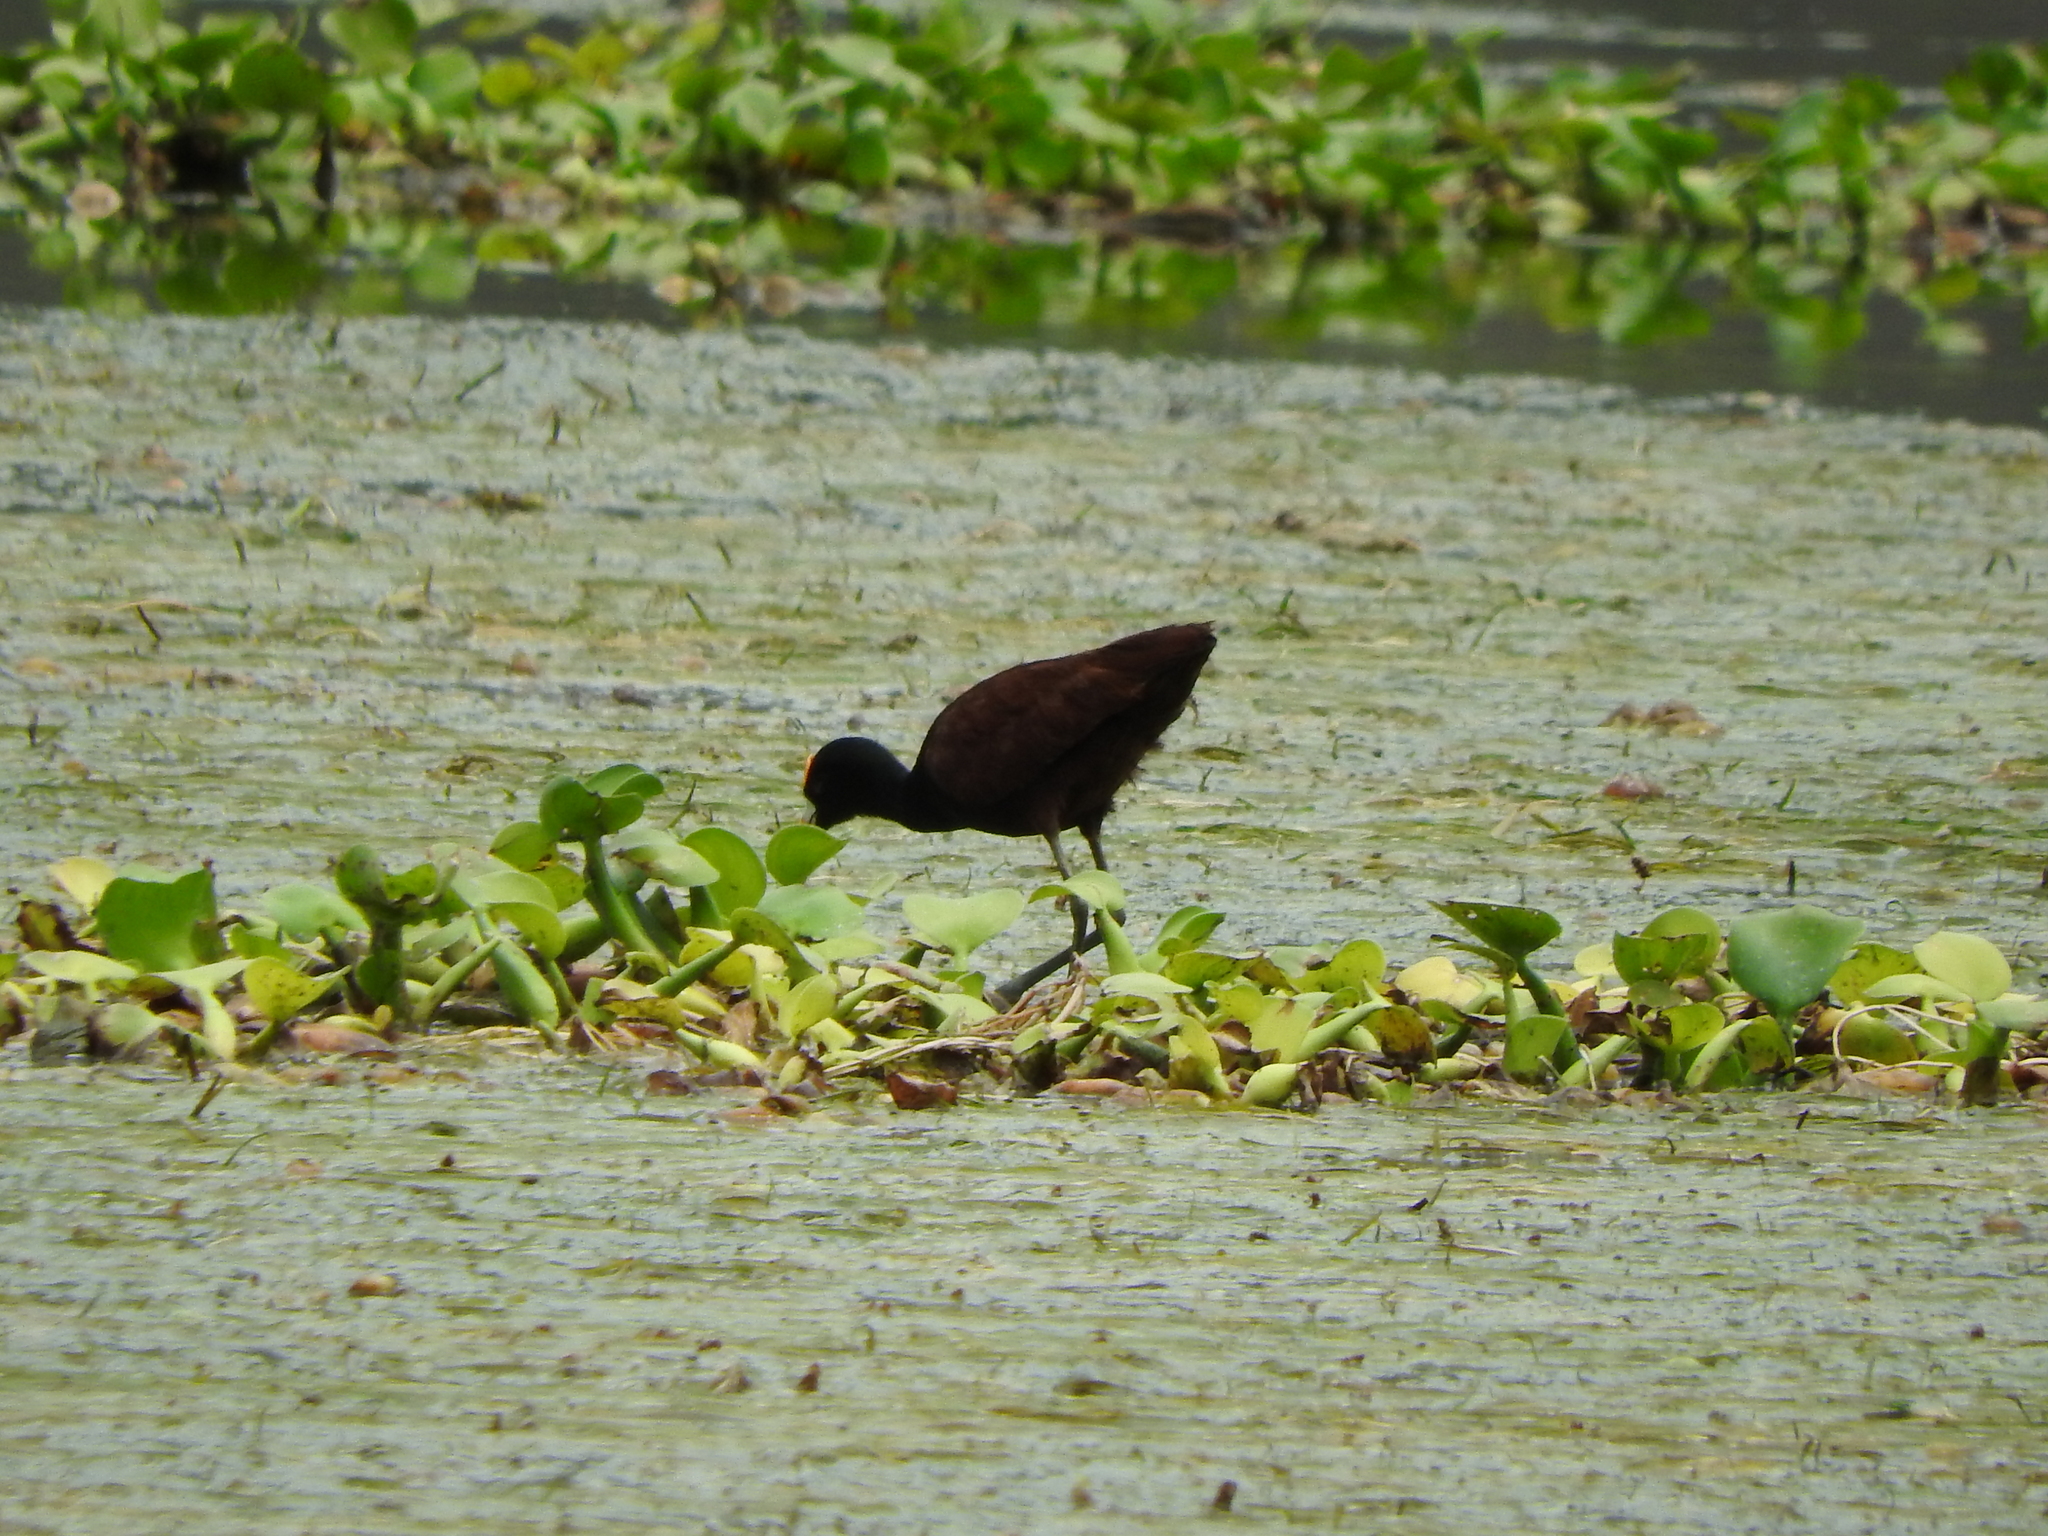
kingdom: Animalia
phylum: Chordata
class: Aves
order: Charadriiformes
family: Jacanidae
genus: Jacana
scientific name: Jacana spinosa
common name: Northern jacana
